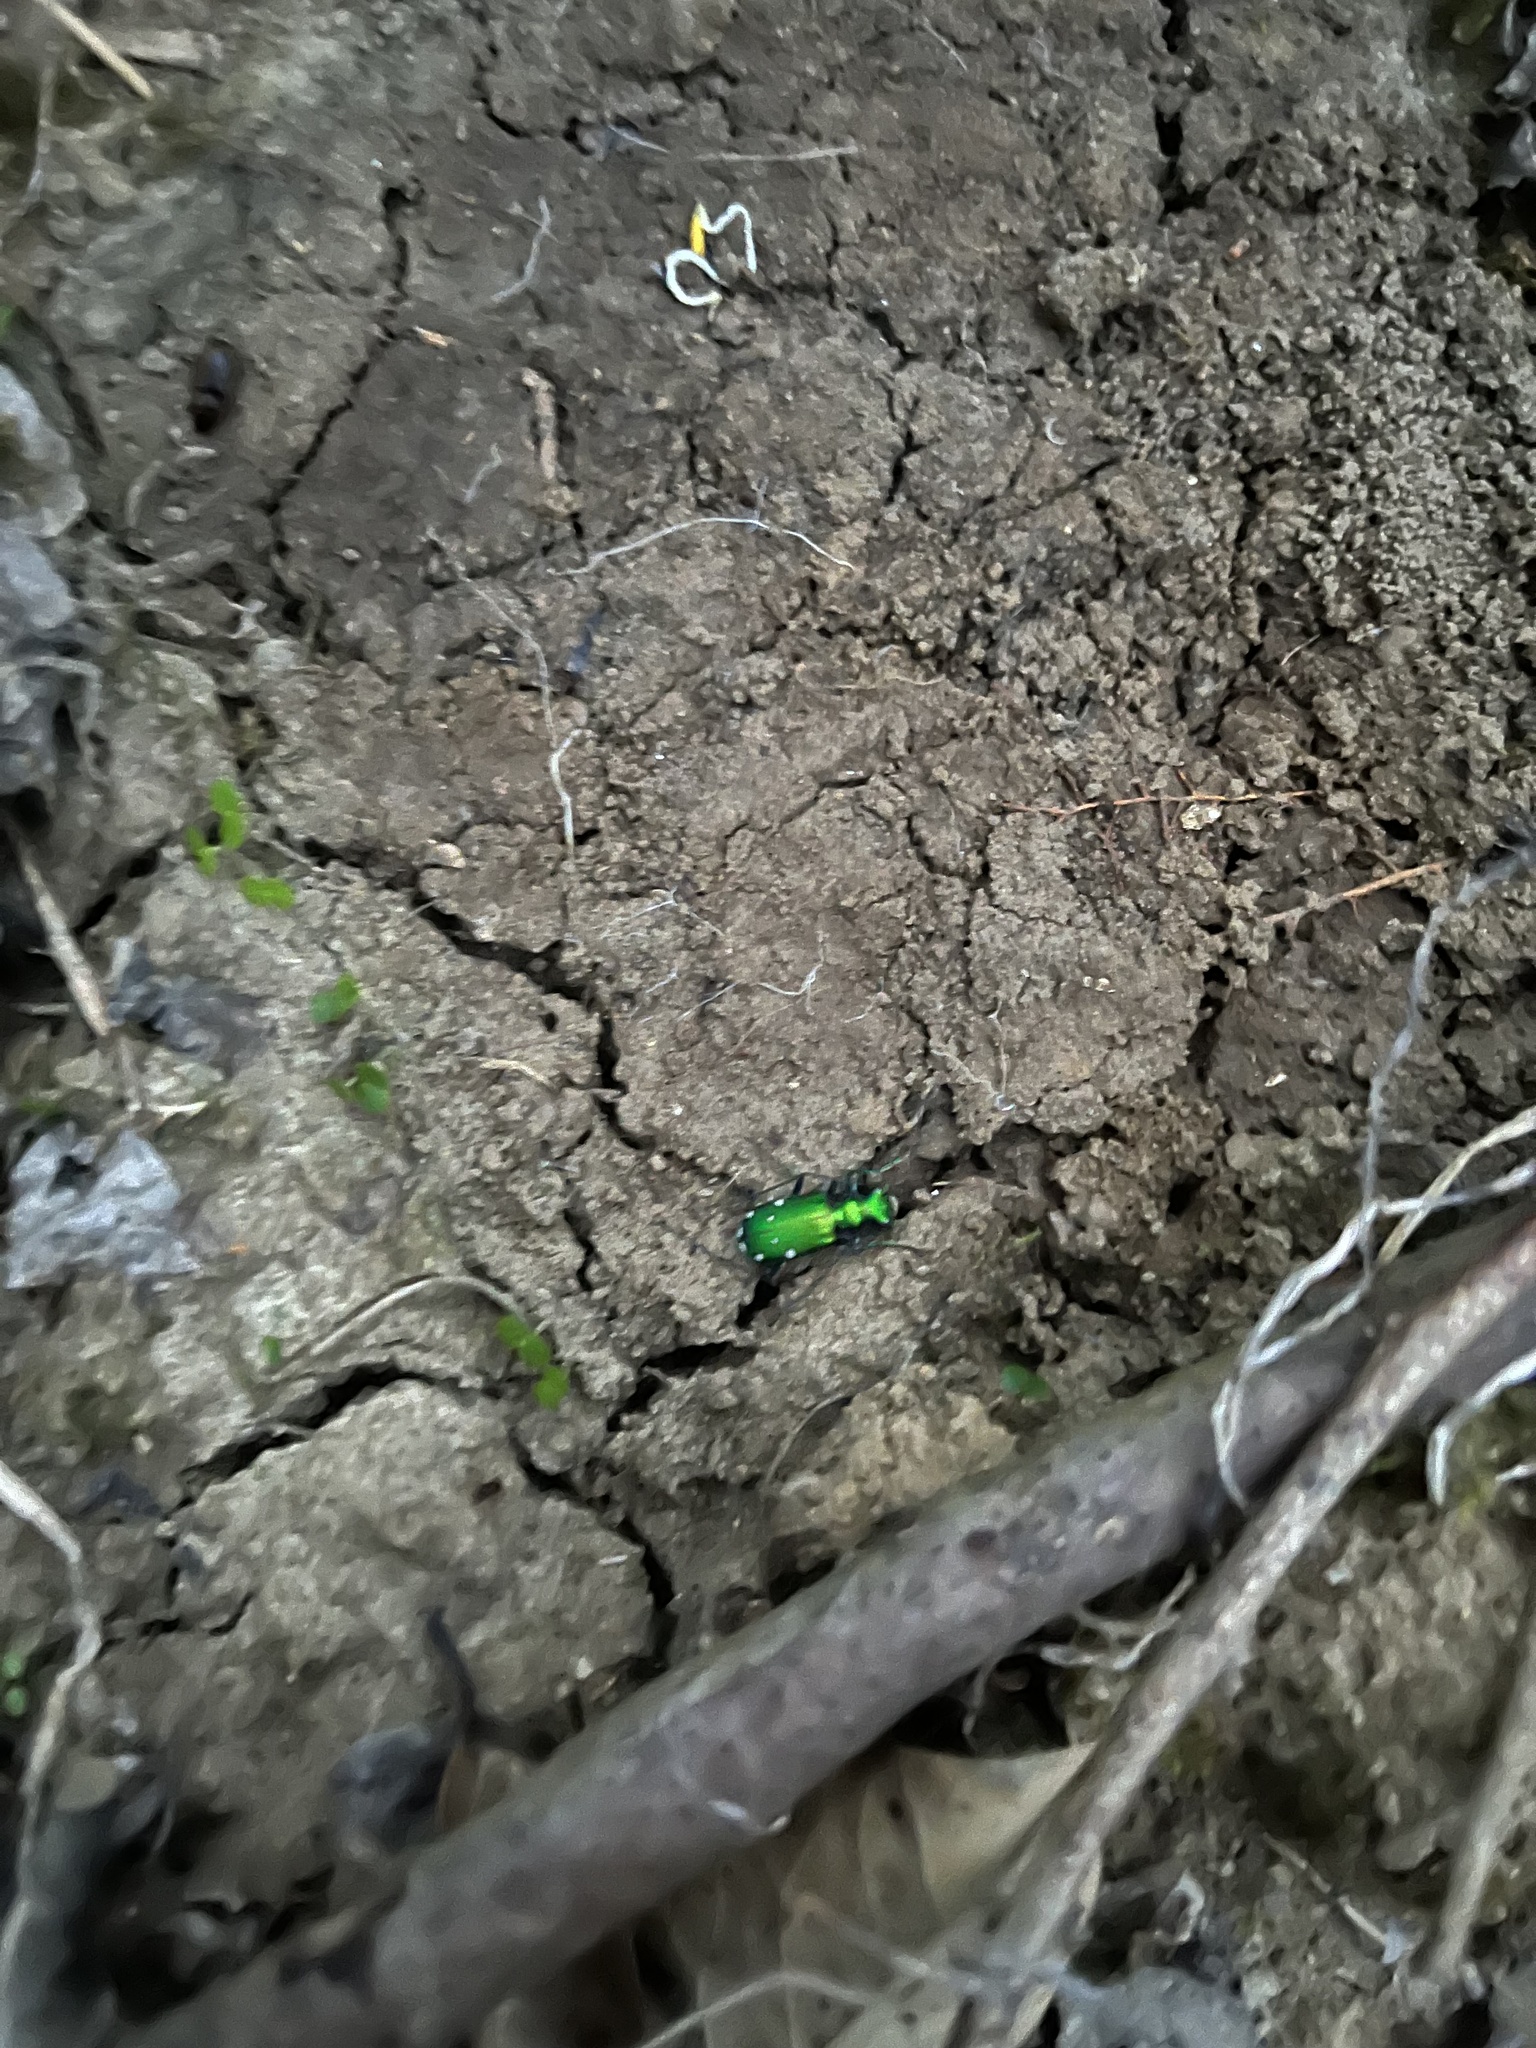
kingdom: Animalia
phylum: Arthropoda
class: Insecta
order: Coleoptera
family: Carabidae
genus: Cicindela
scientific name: Cicindela sexguttata
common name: Six-spotted tiger beetle
